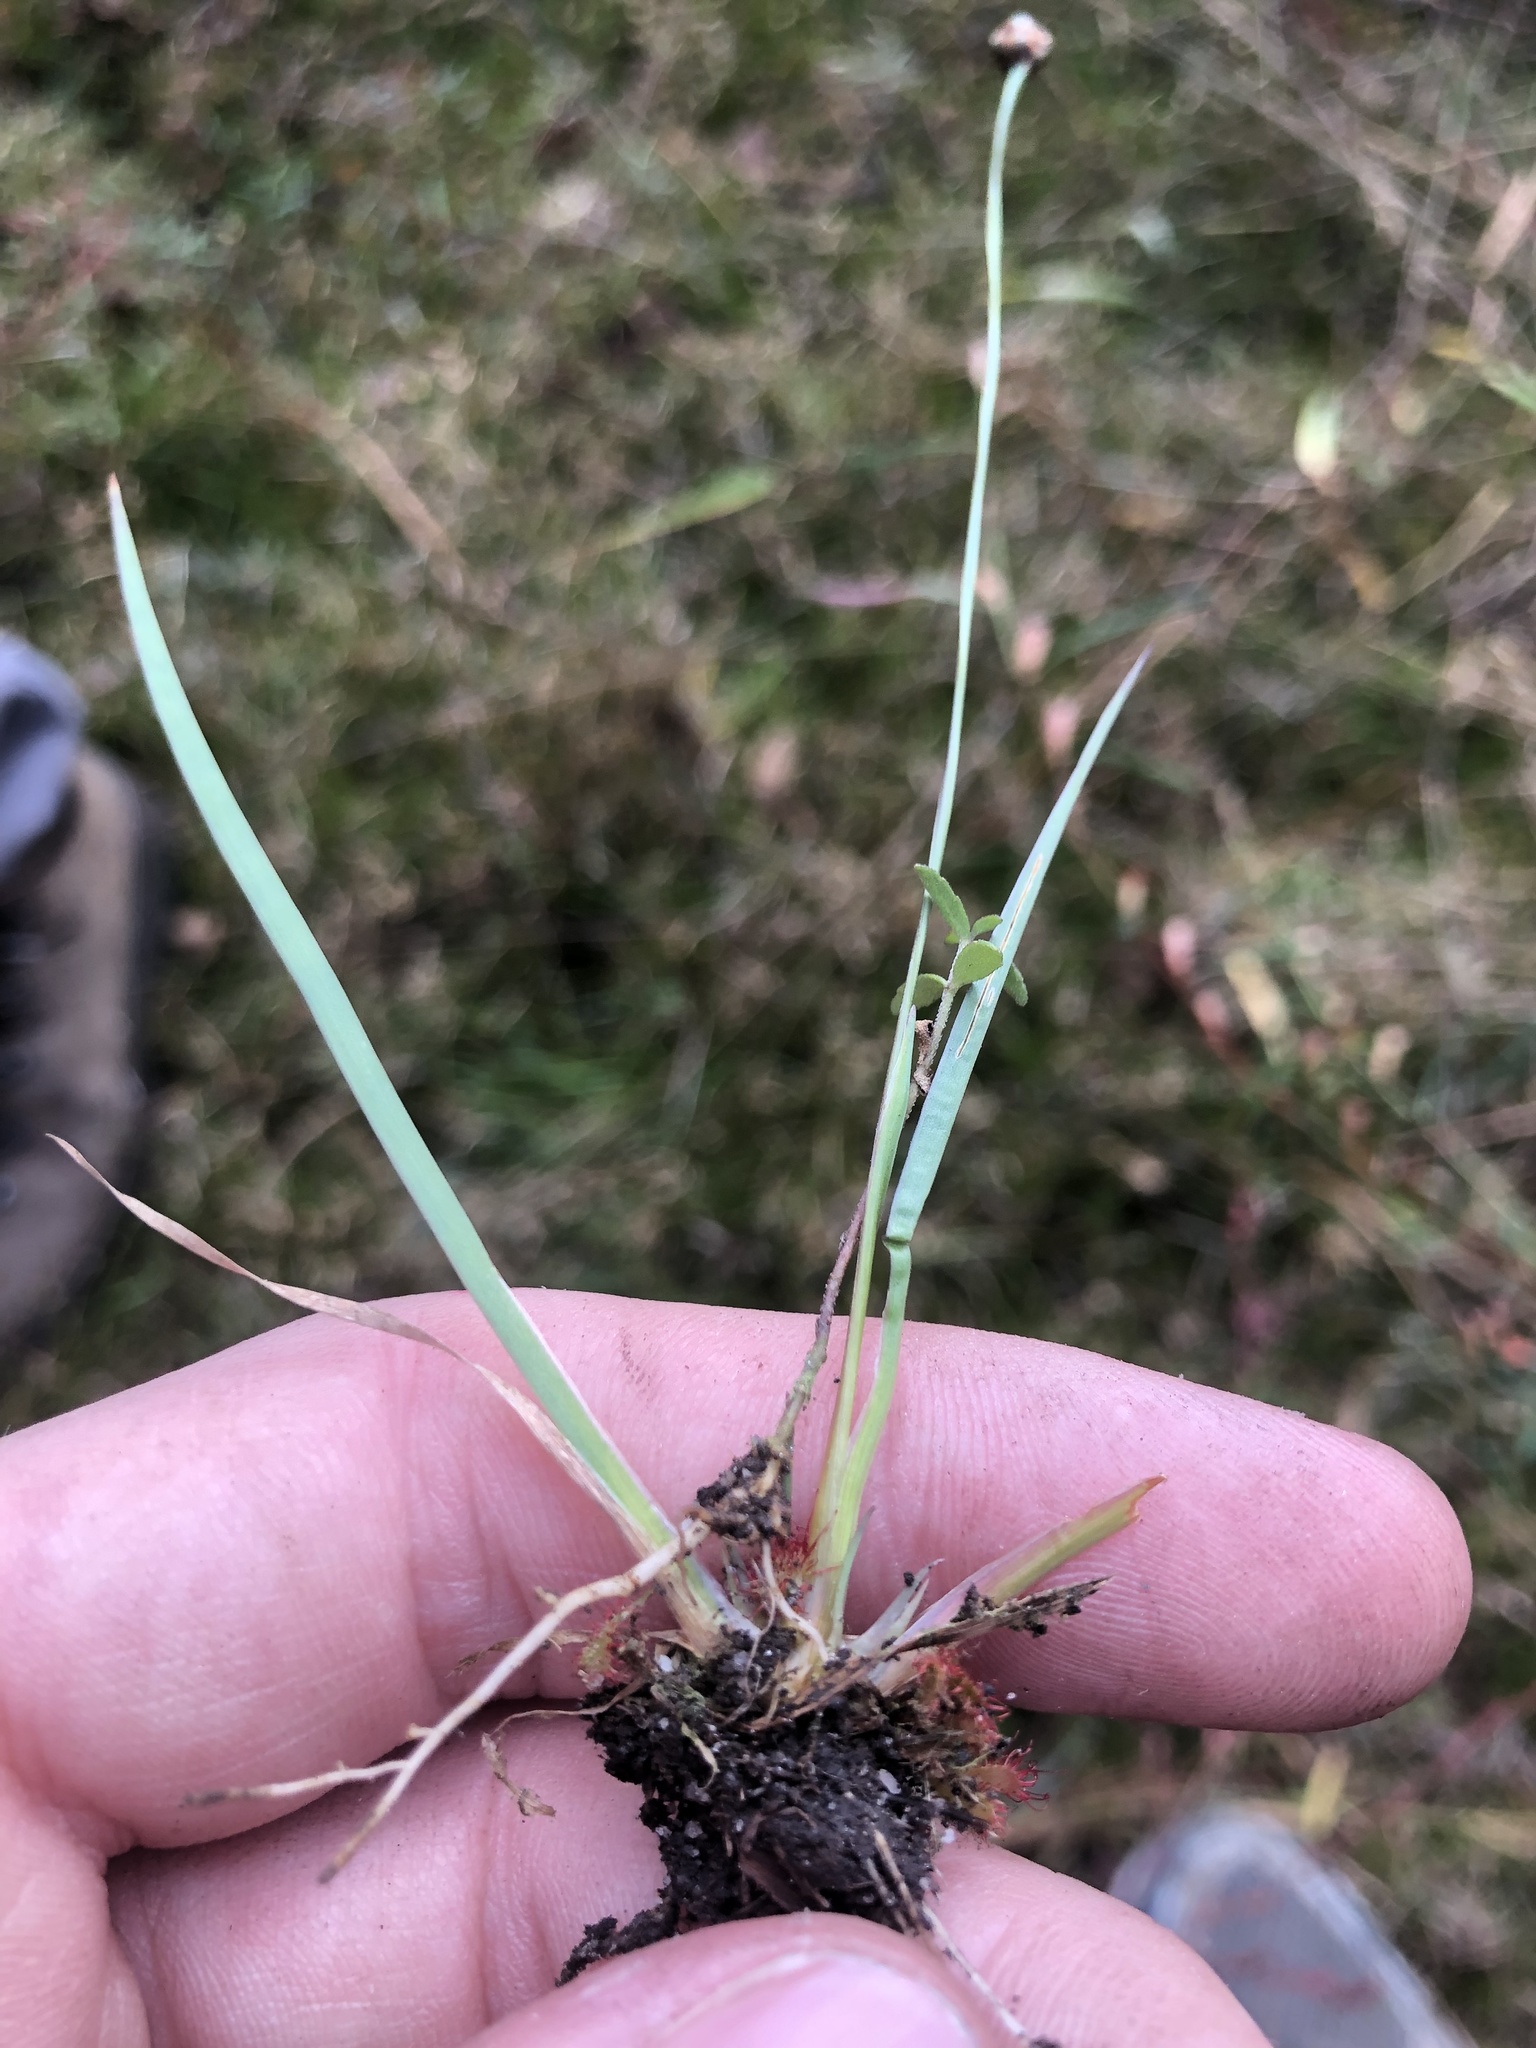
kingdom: Plantae
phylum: Tracheophyta
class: Liliopsida
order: Poales
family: Xyridaceae
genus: Xyris
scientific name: Xyris difformis
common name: Bog yellow-eyed-grass
